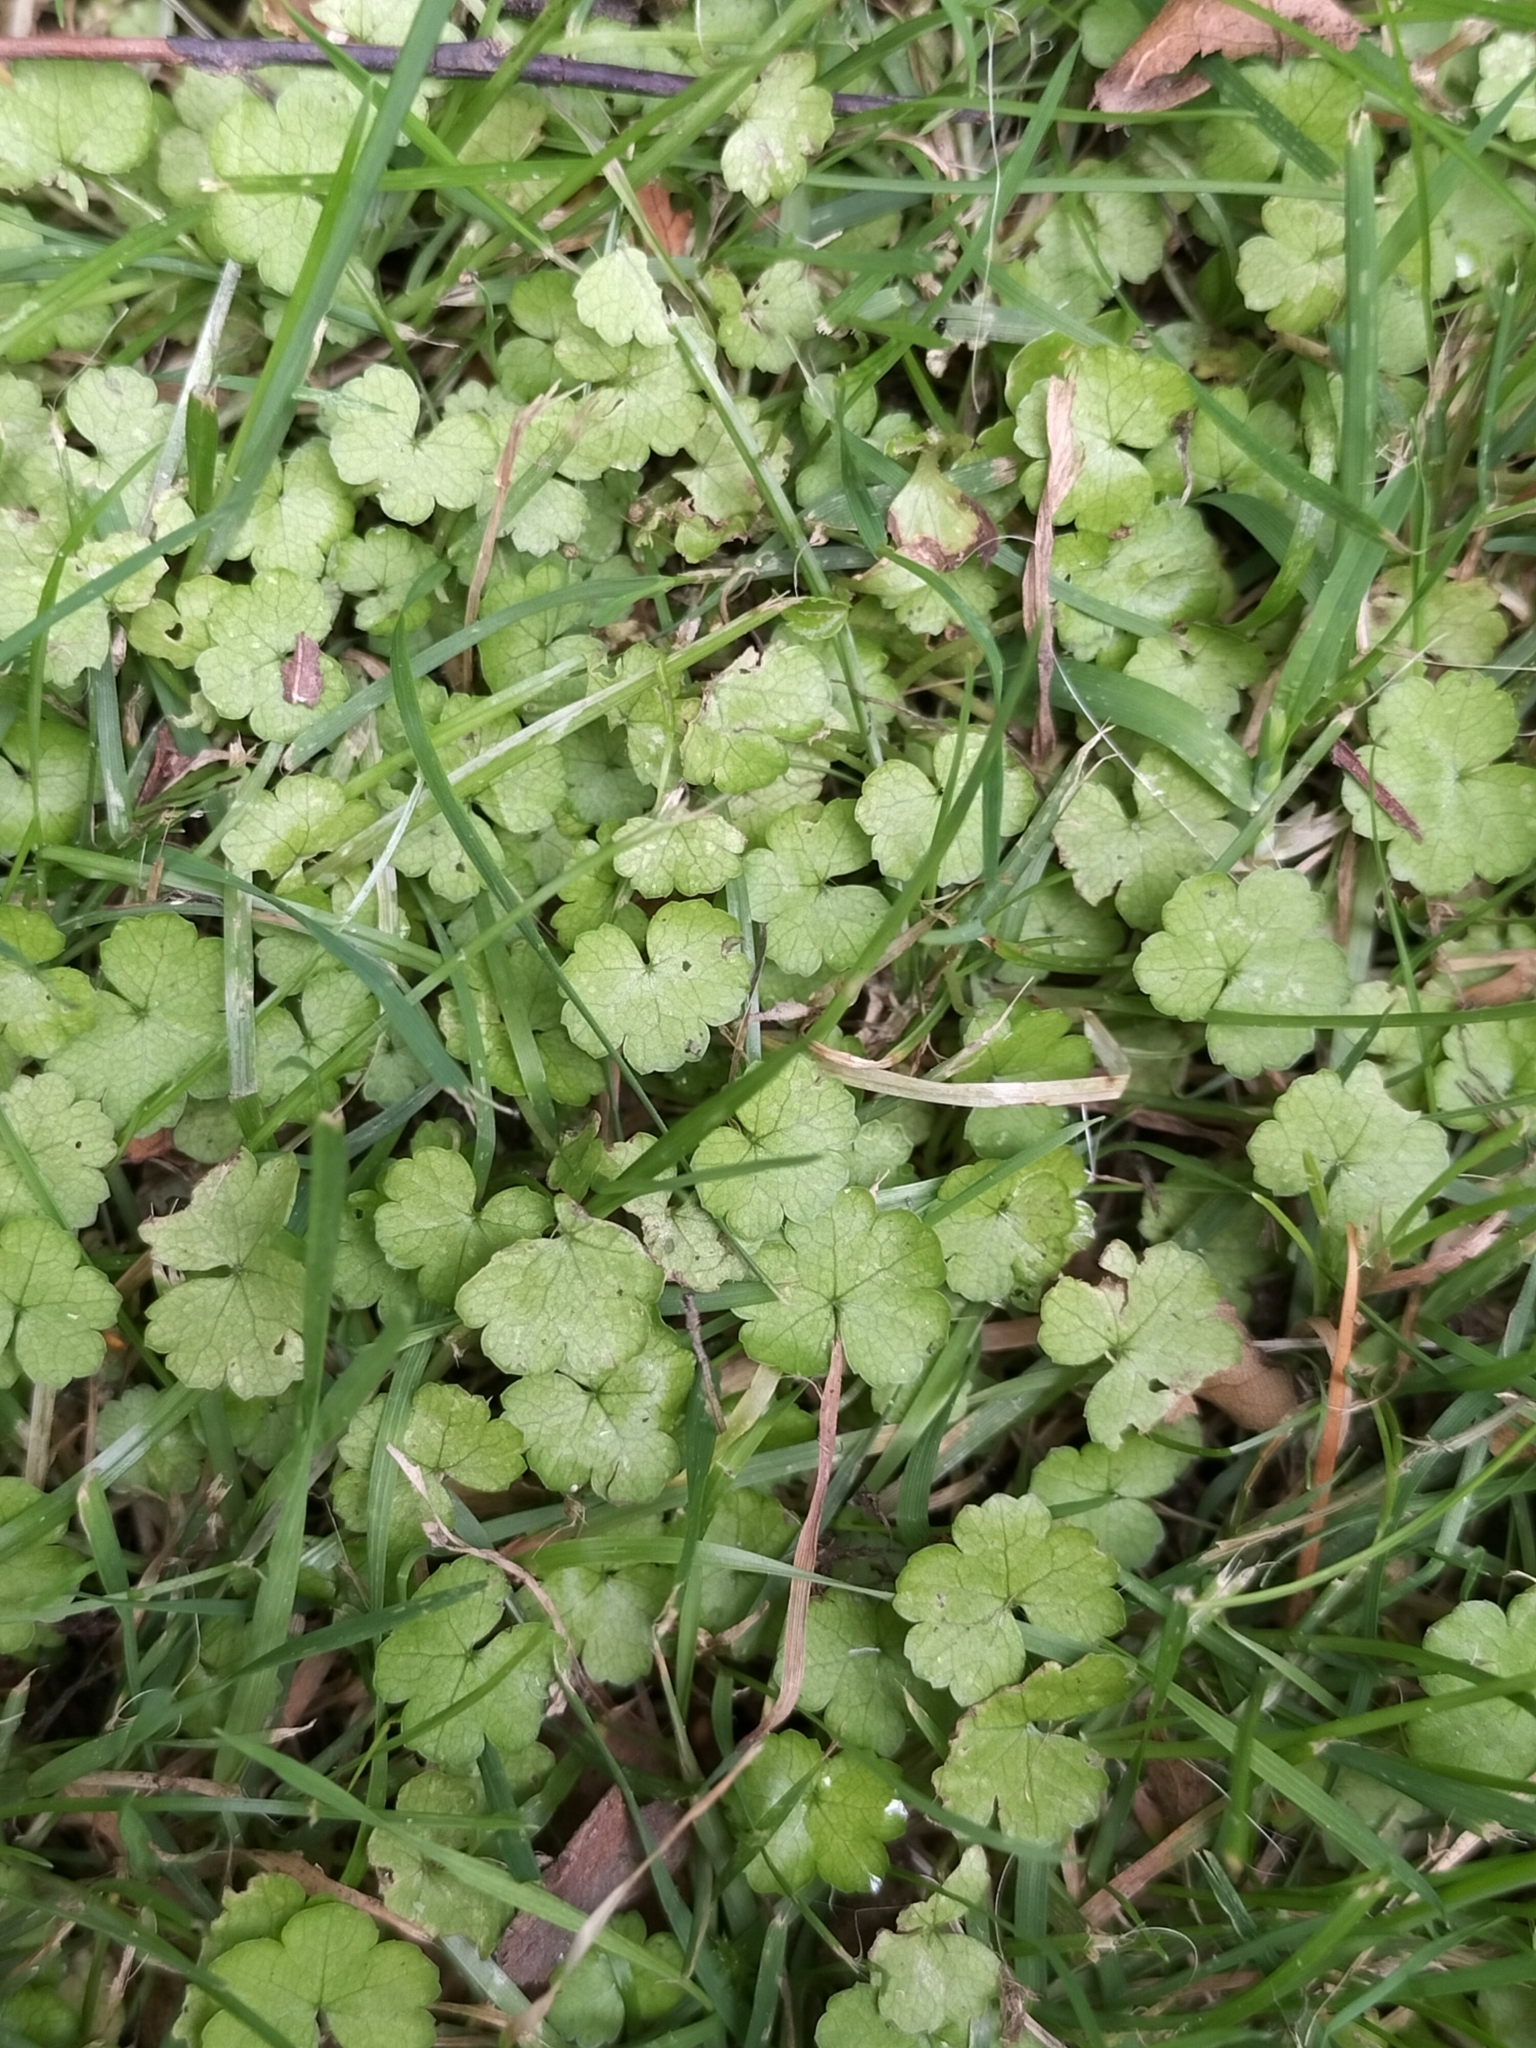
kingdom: Plantae
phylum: Tracheophyta
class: Magnoliopsida
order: Apiales
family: Araliaceae
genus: Hydrocotyle
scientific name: Hydrocotyle heteromeria
